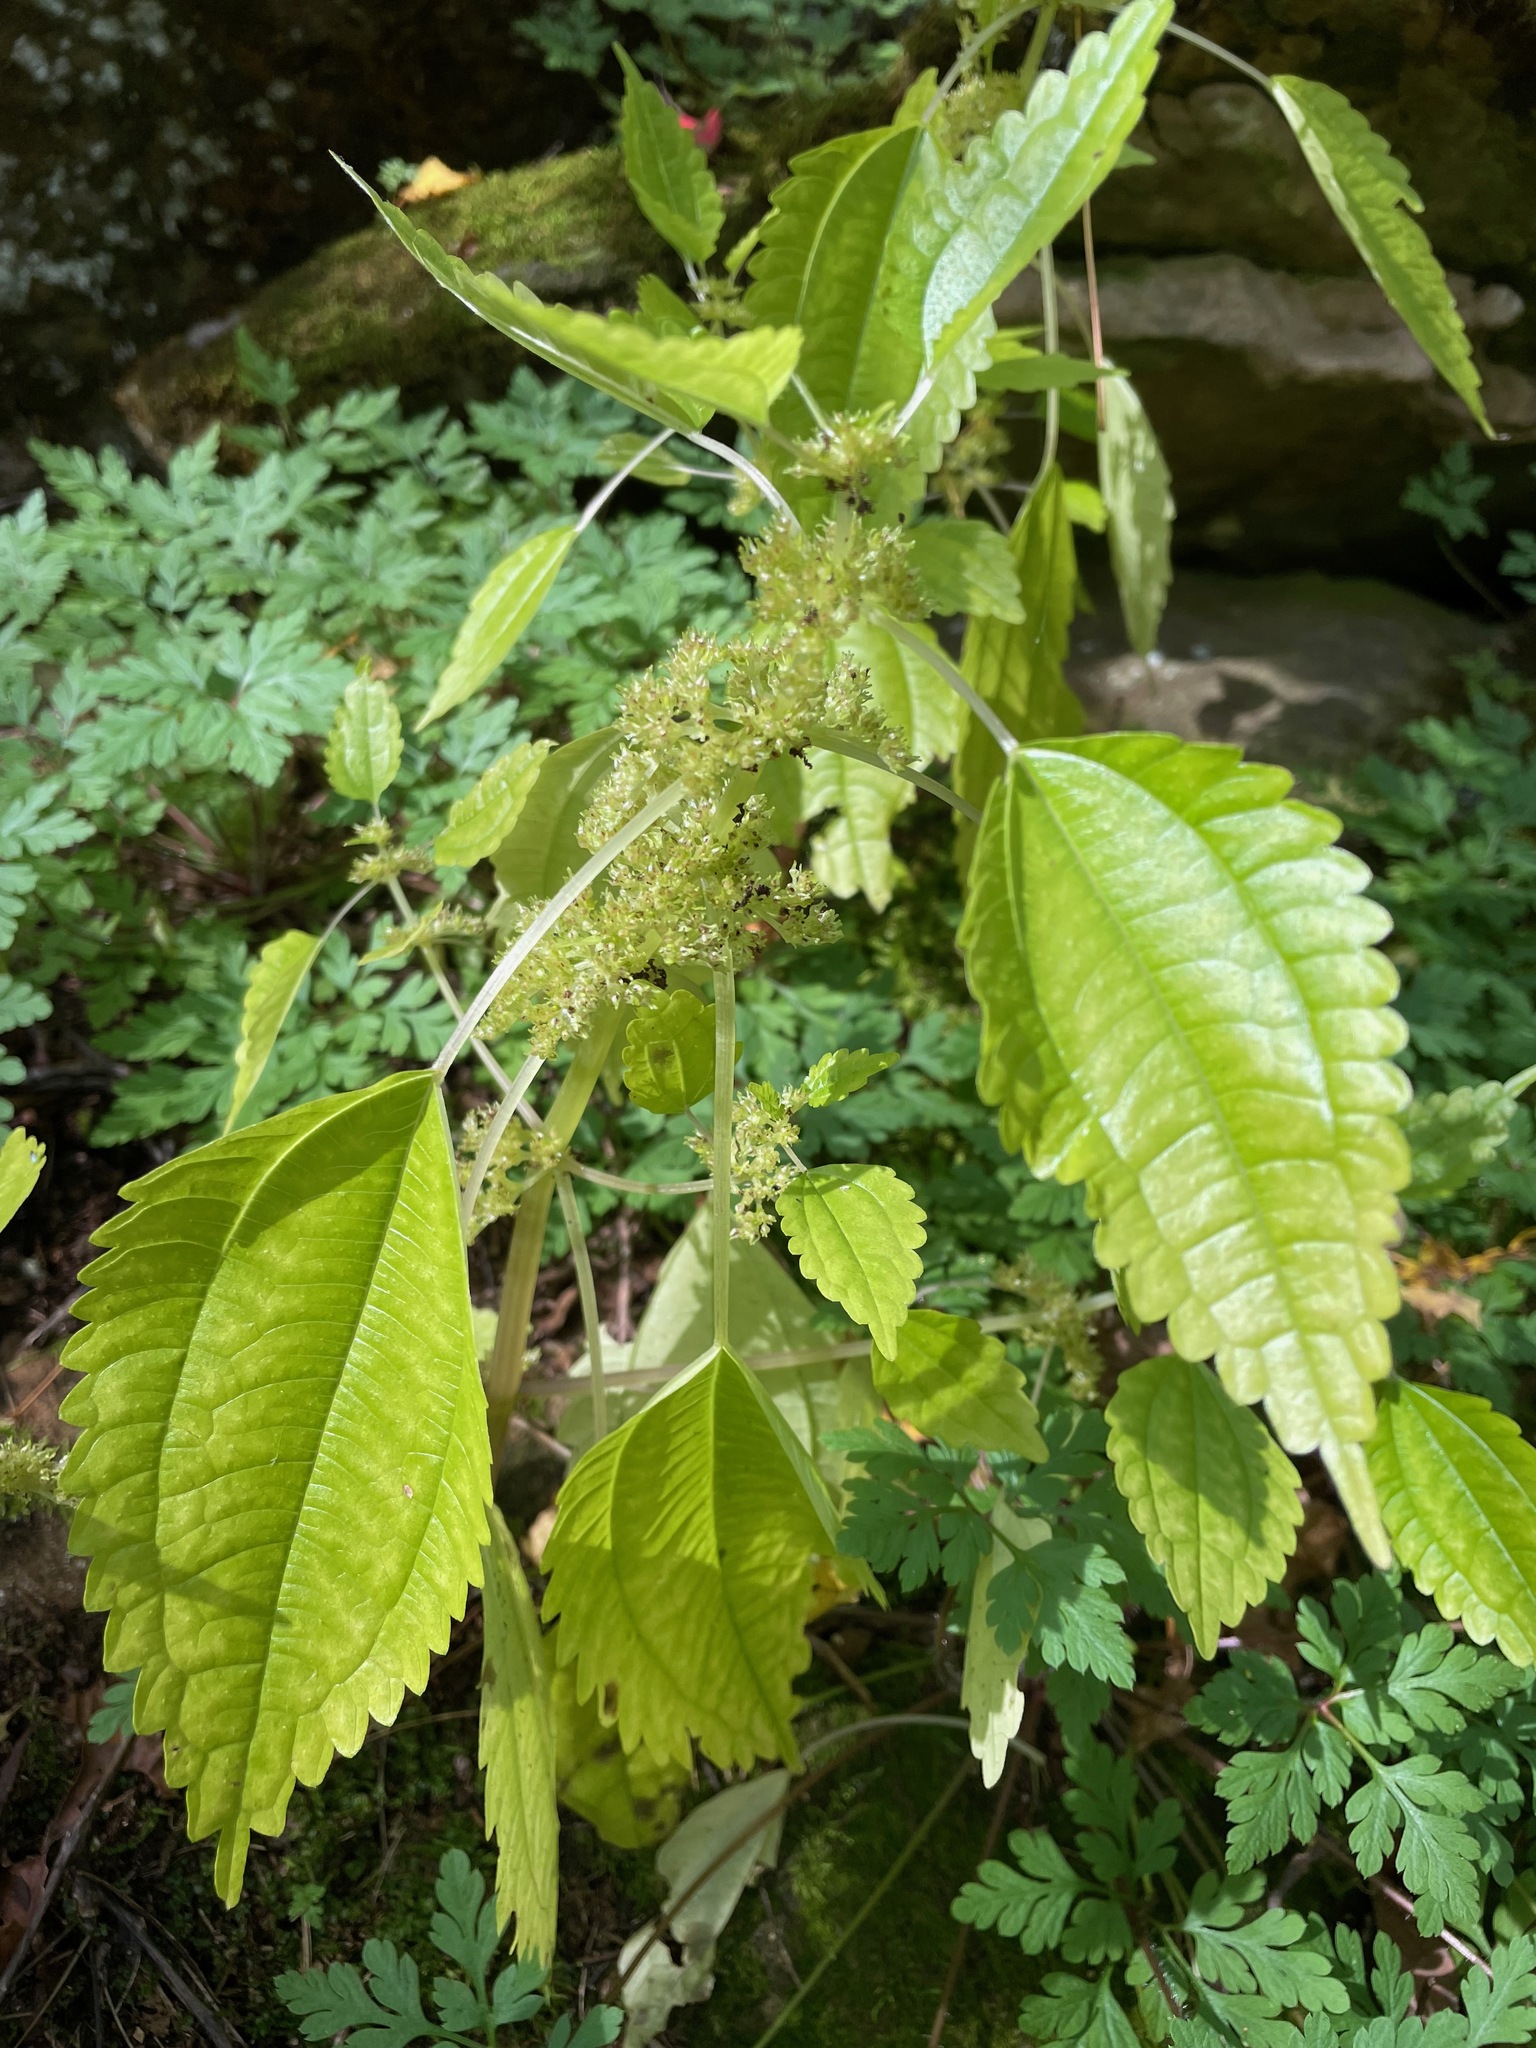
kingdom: Plantae
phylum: Tracheophyta
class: Magnoliopsida
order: Rosales
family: Urticaceae
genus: Pilea
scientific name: Pilea pumila
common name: Clearweed
